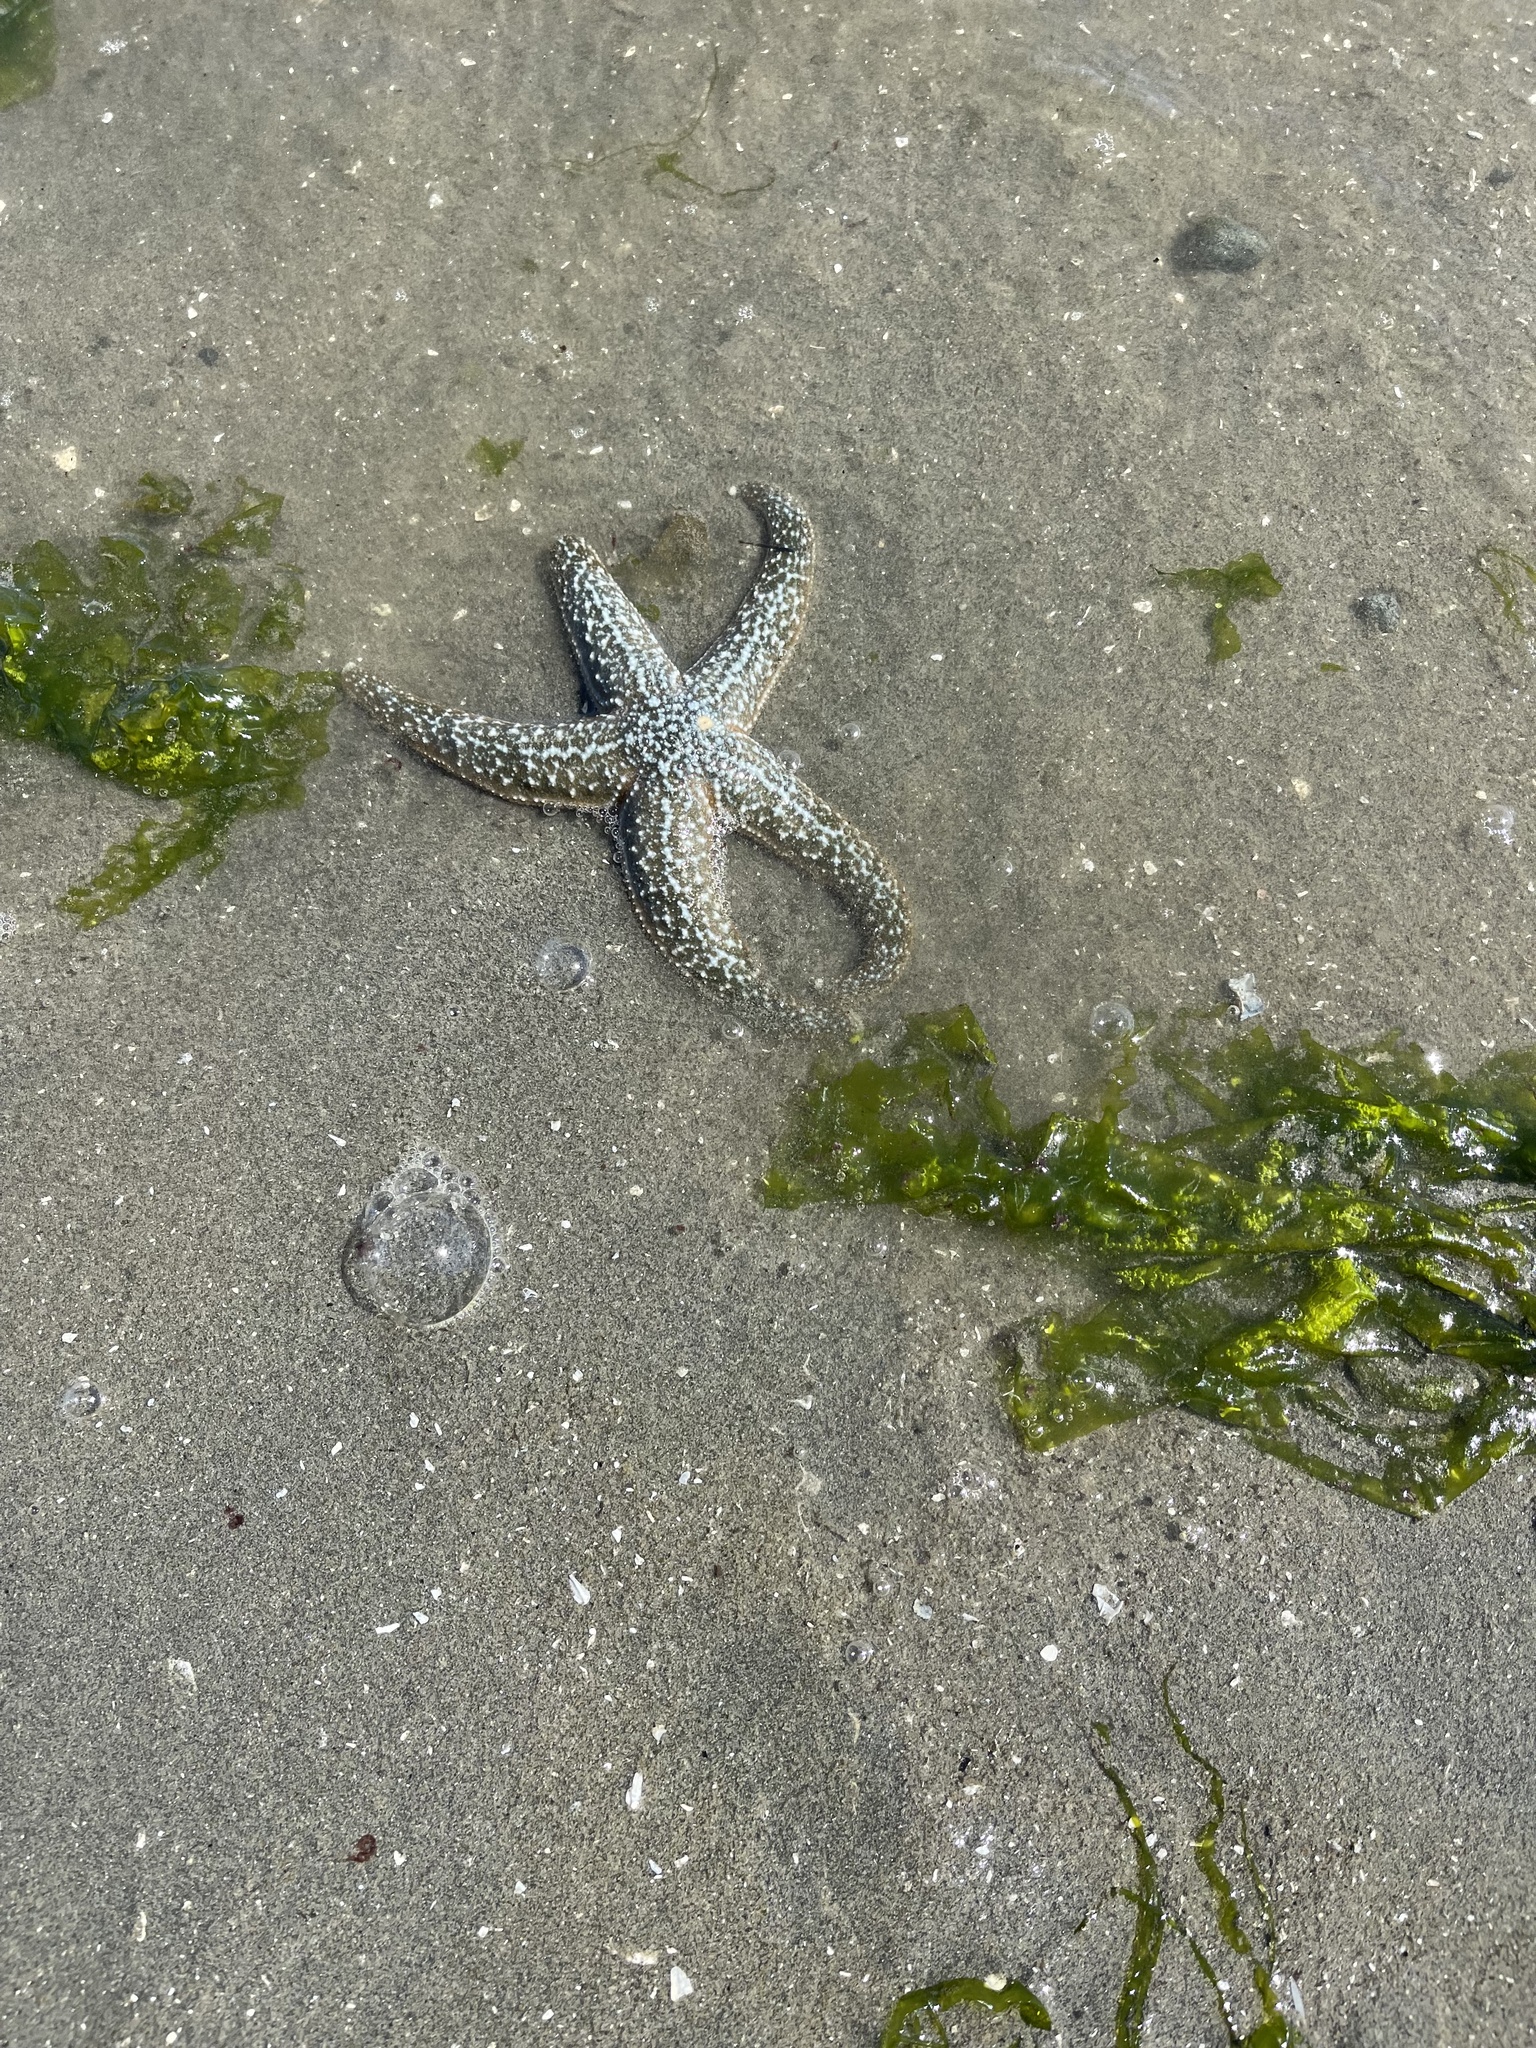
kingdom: Animalia
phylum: Echinodermata
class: Asteroidea
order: Forcipulatida
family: Asteriidae
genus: Evasterias
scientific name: Evasterias troschelii
